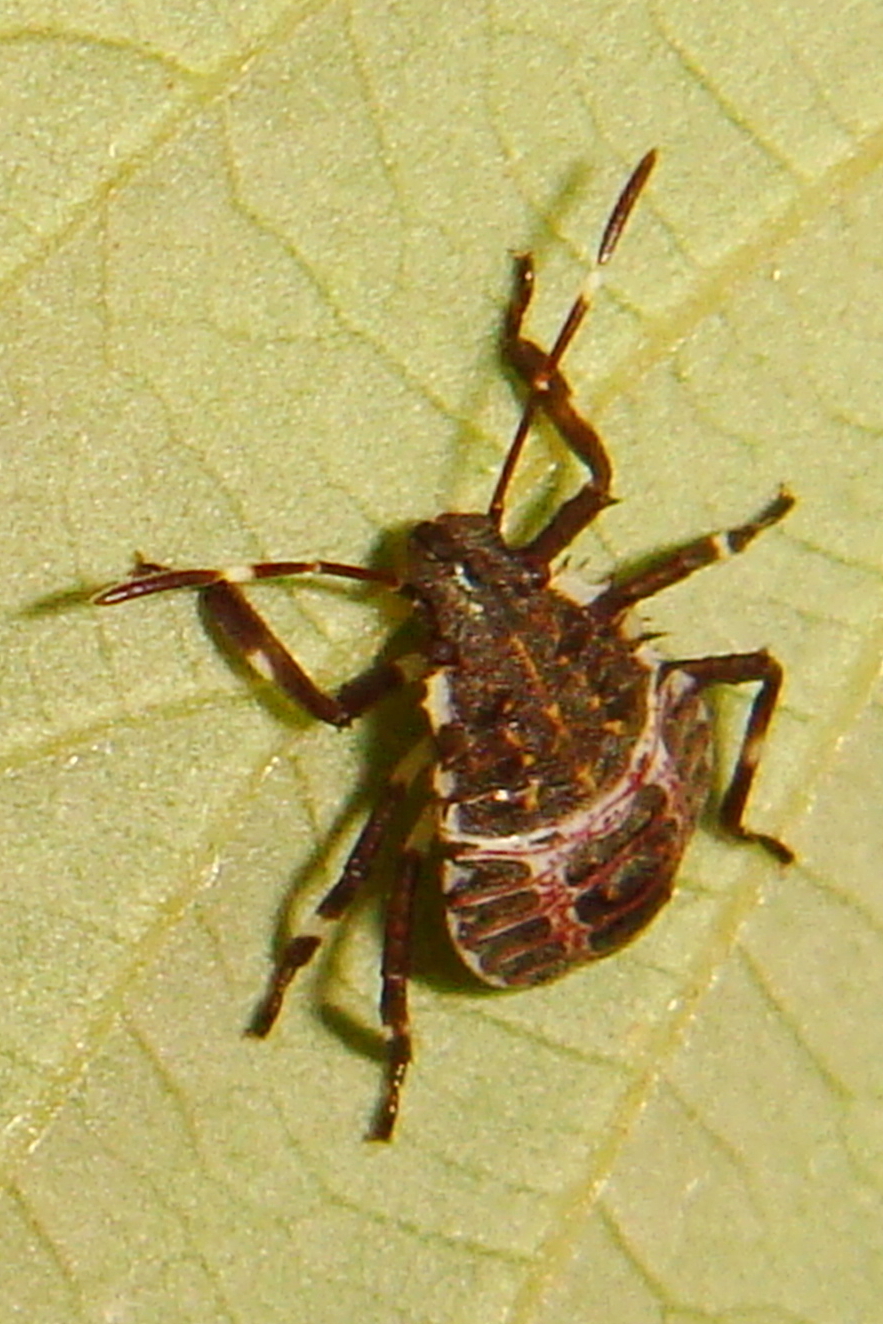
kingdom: Animalia
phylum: Arthropoda
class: Insecta
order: Hemiptera
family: Pentatomidae
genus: Halyomorpha
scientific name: Halyomorpha halys
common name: Brown marmorated stink bug
